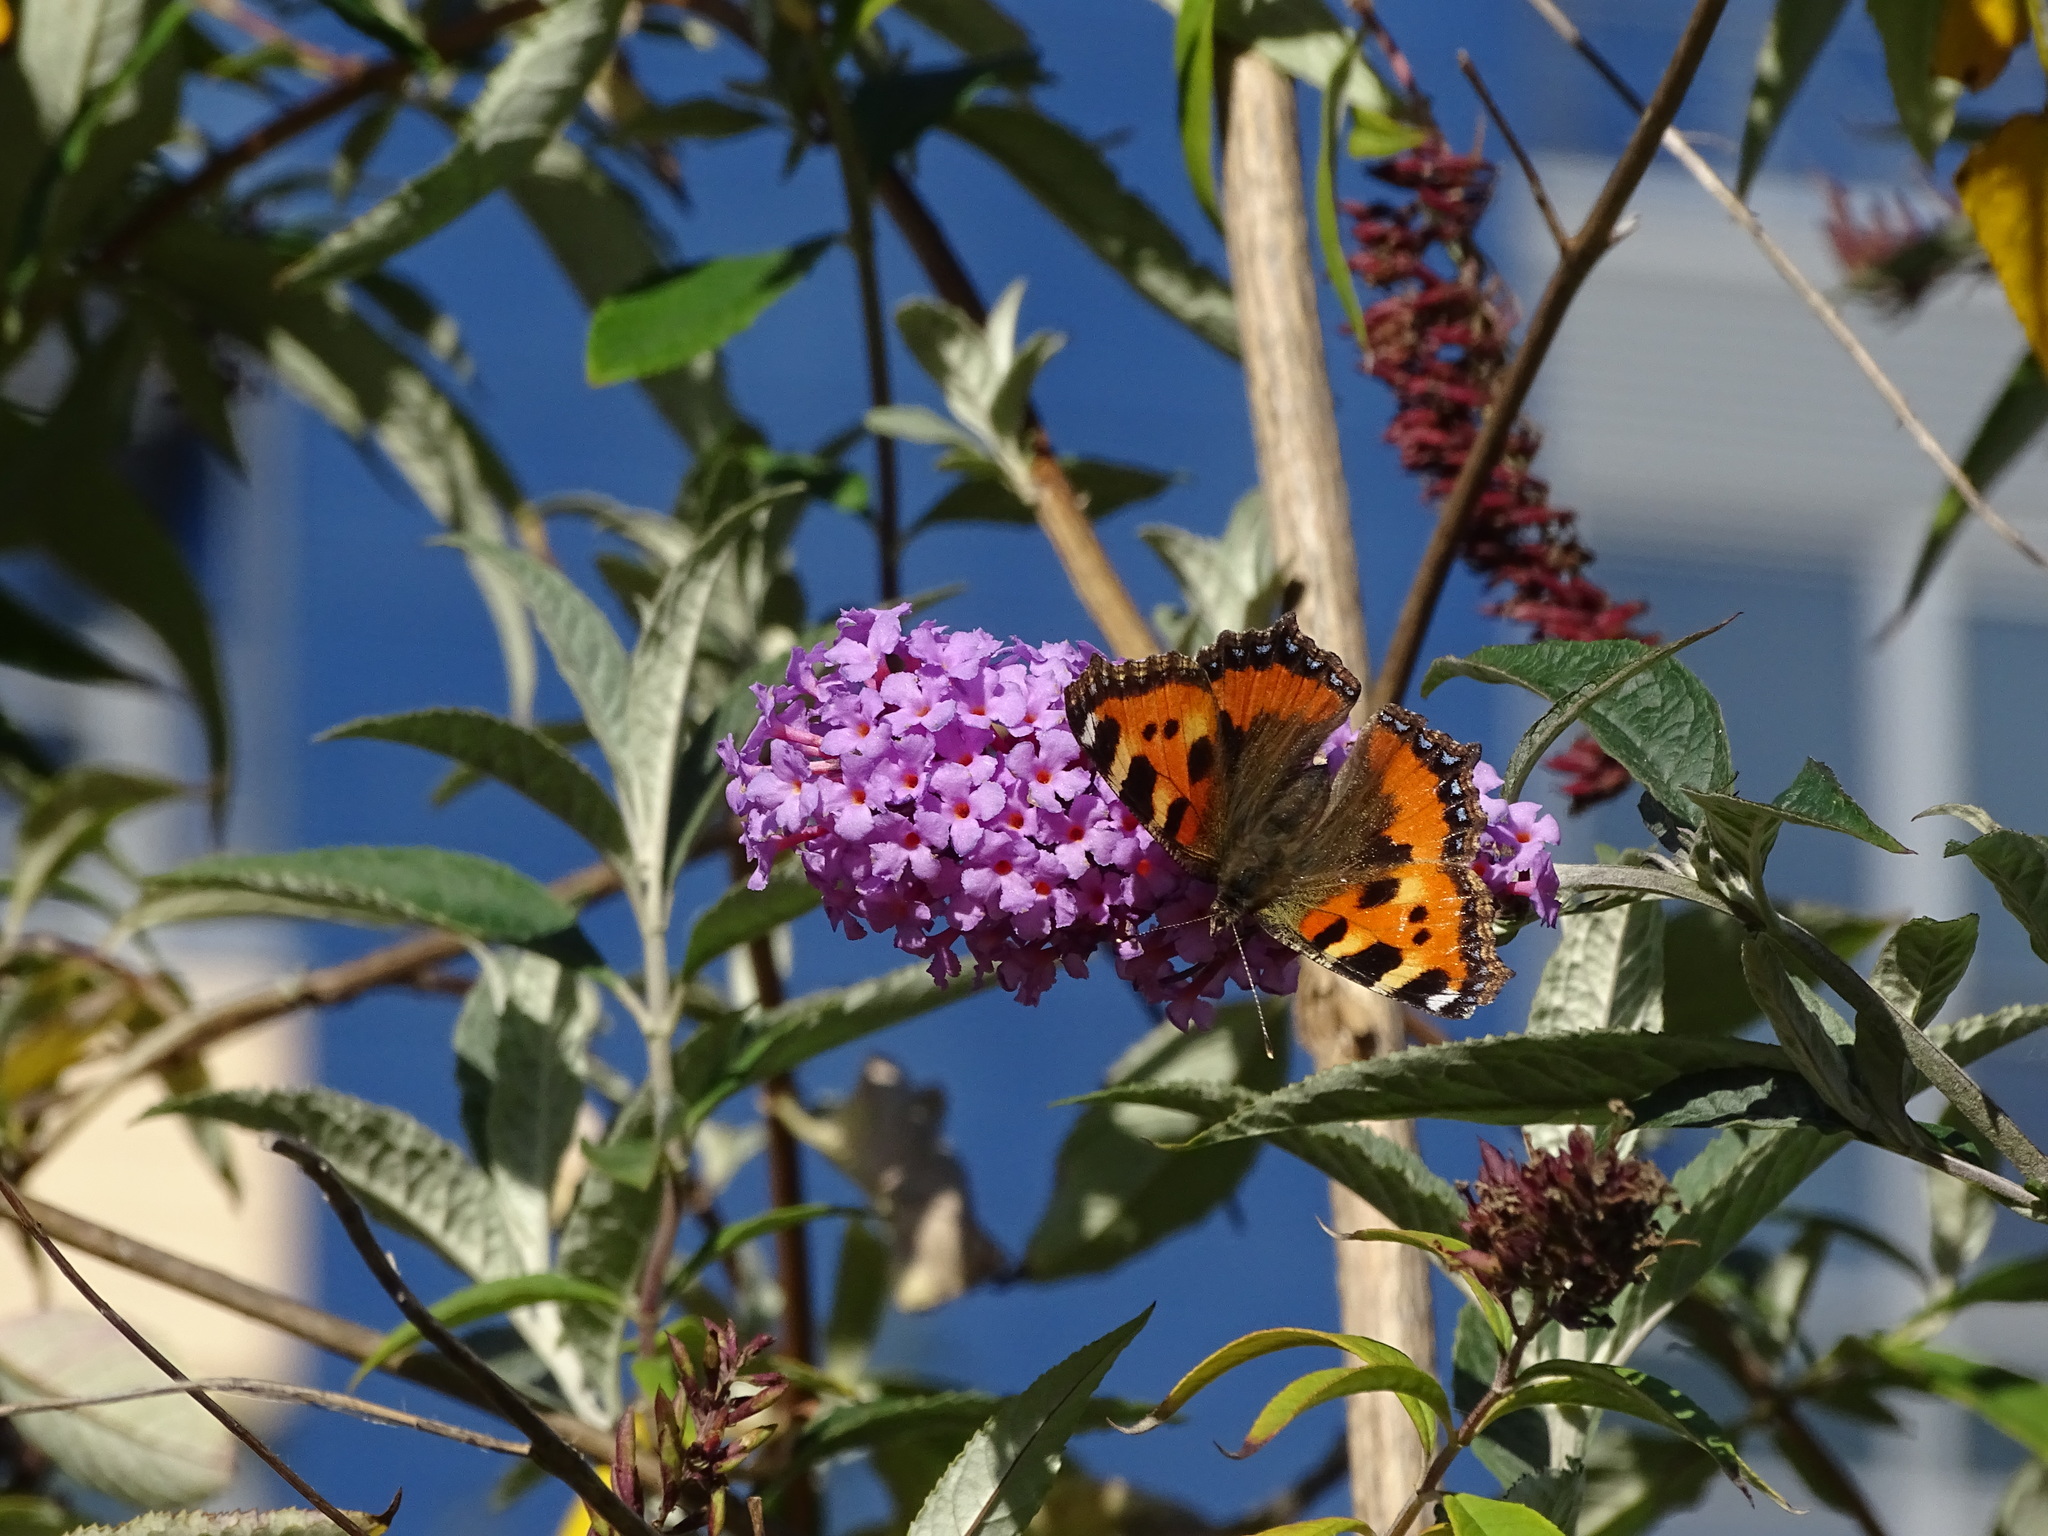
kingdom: Animalia
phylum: Arthropoda
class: Insecta
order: Lepidoptera
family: Nymphalidae
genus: Aglais
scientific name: Aglais urticae
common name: Small tortoiseshell
